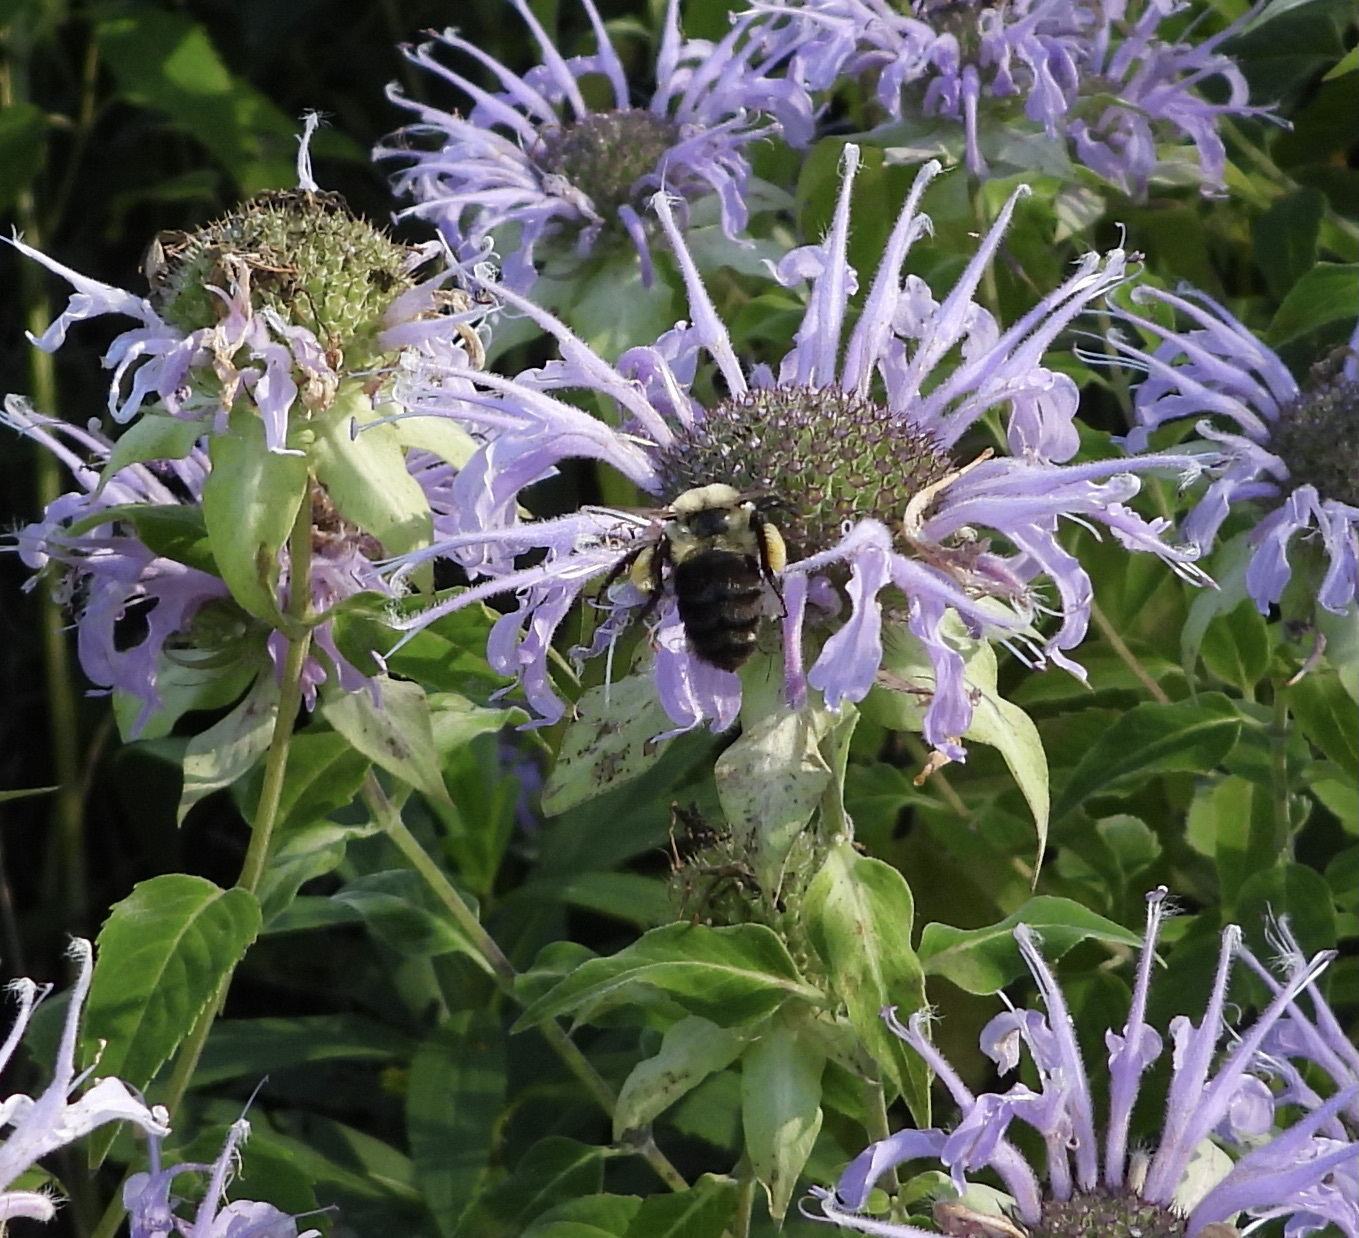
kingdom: Animalia
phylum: Arthropoda
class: Insecta
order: Hymenoptera
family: Apidae
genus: Bombus
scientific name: Bombus impatiens
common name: Common eastern bumble bee
